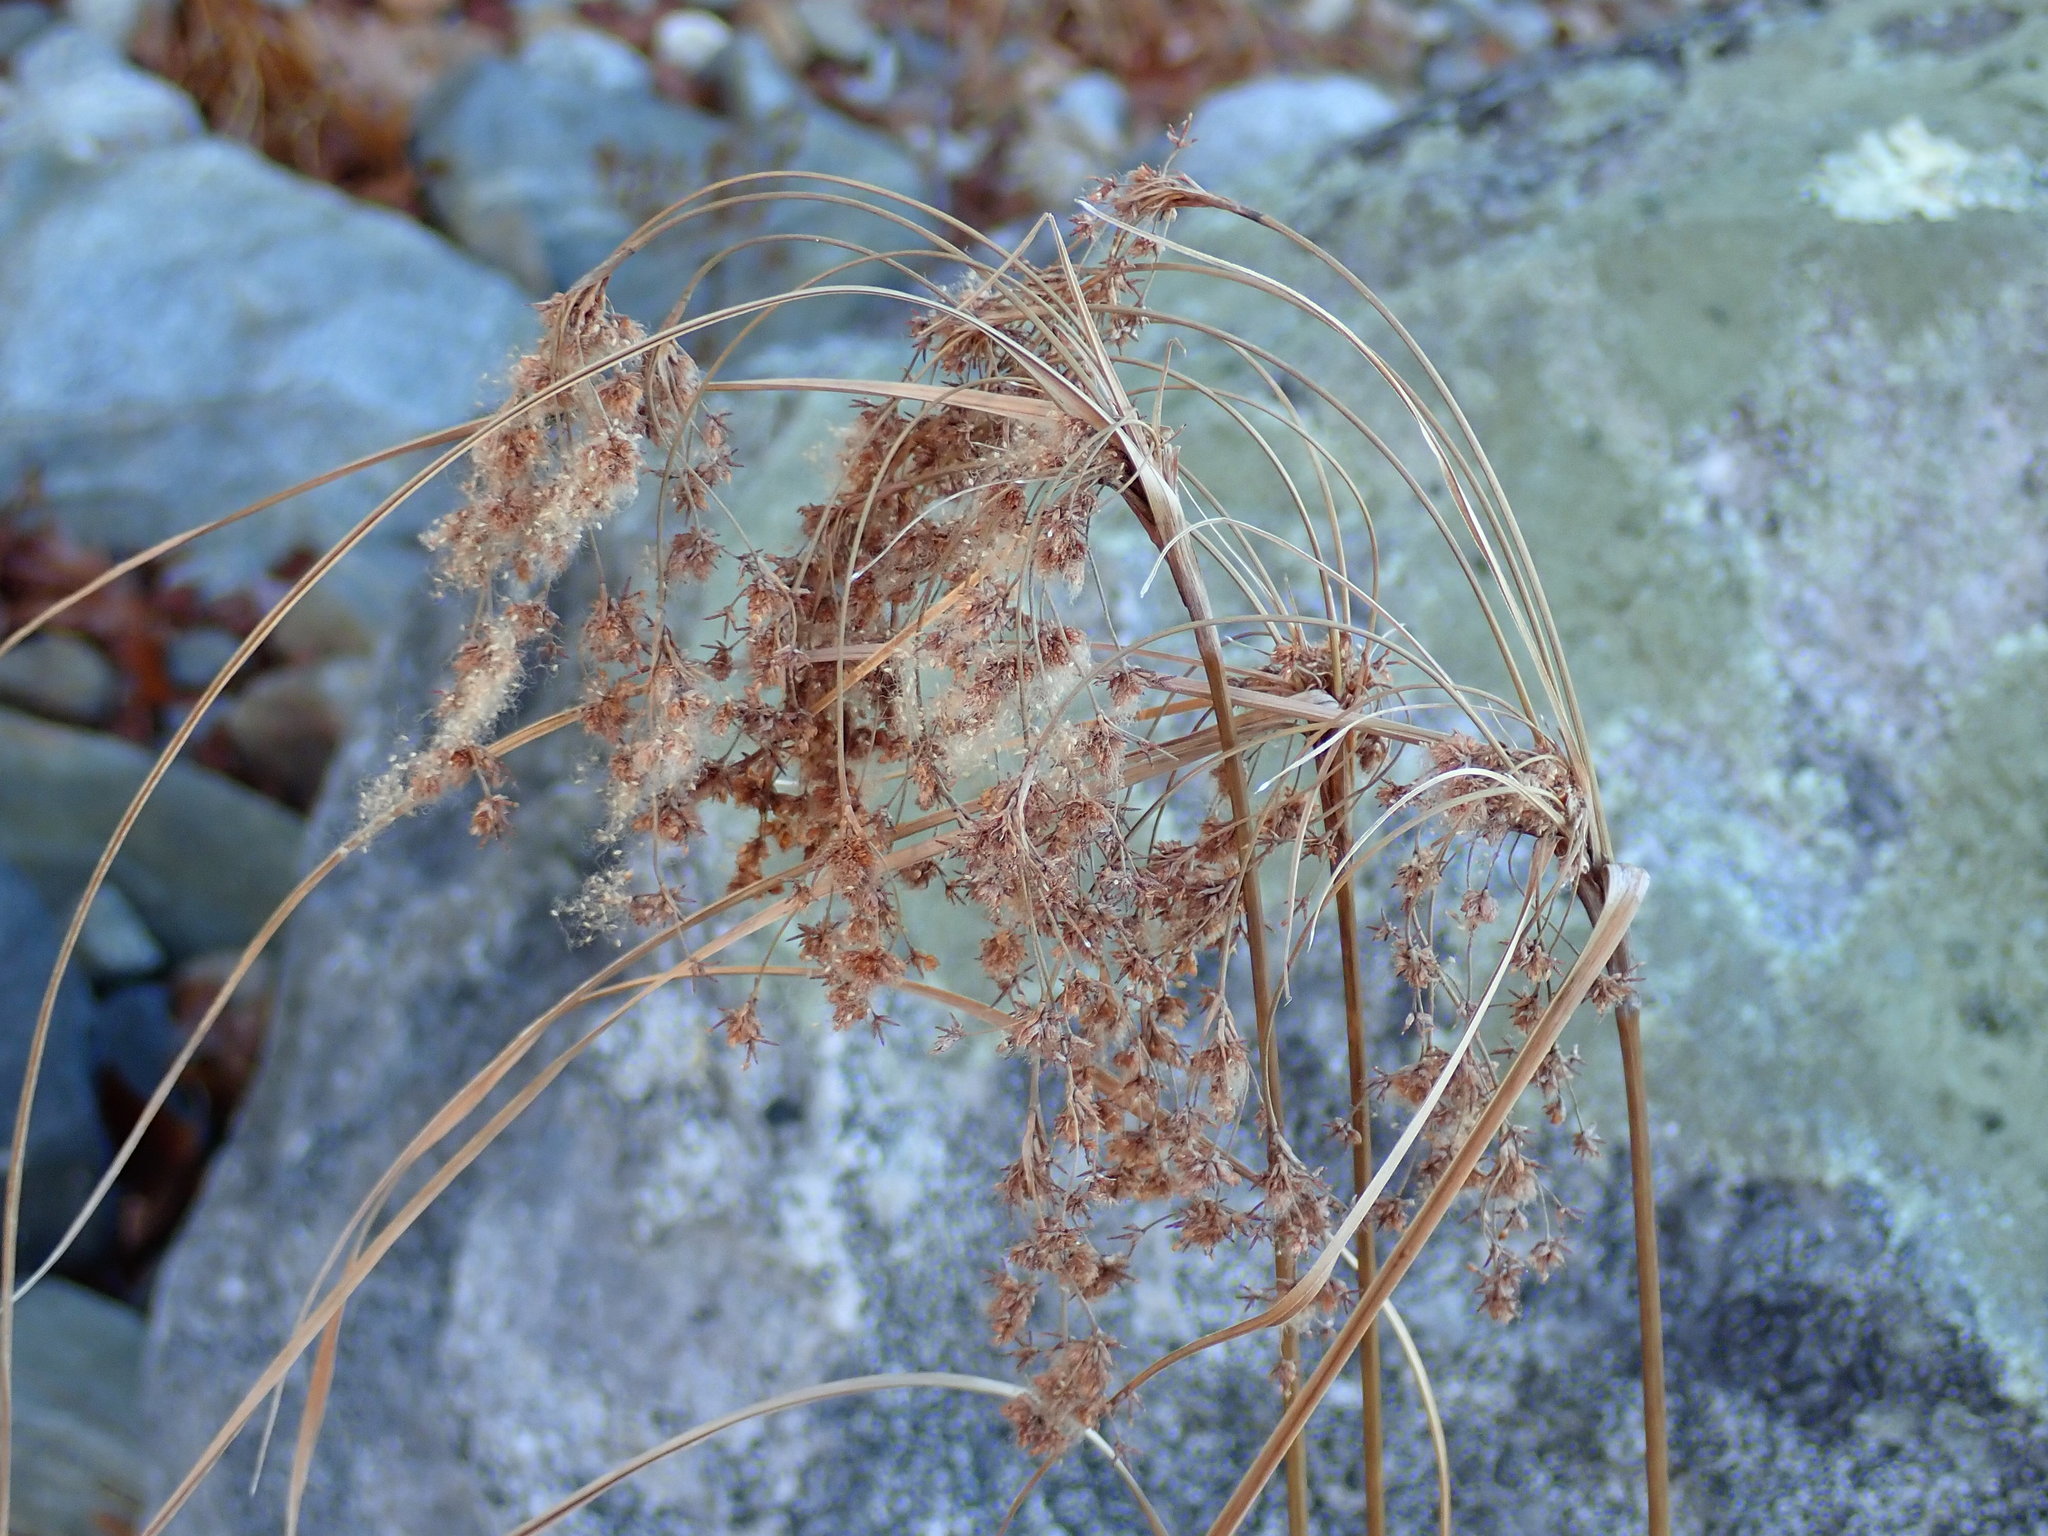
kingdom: Plantae
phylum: Tracheophyta
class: Liliopsida
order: Poales
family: Cyperaceae
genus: Scirpus
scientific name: Scirpus cyperinus
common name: Black-sheathed bulrush
